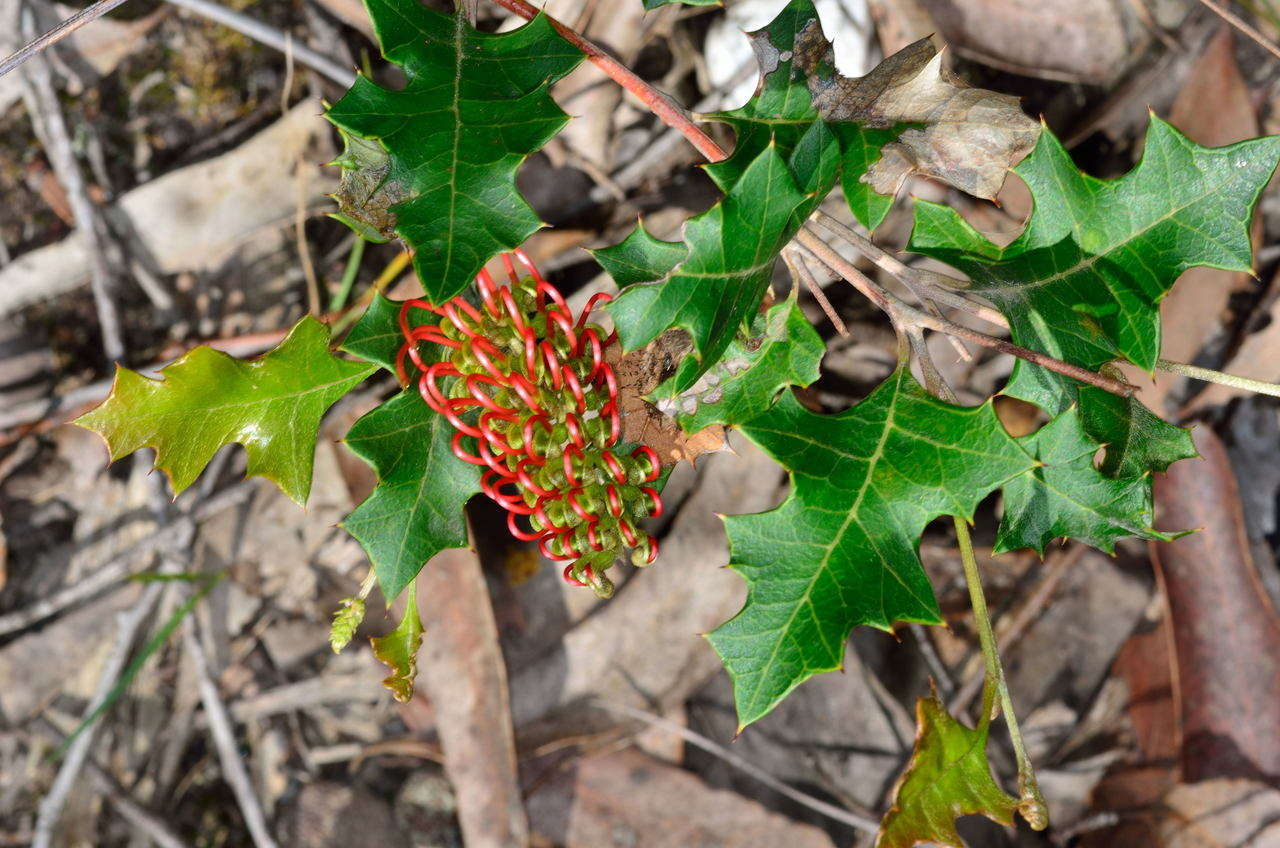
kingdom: Plantae
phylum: Tracheophyta
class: Magnoliopsida
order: Proteales
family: Proteaceae
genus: Grevillea
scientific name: Grevillea steiglitziana
